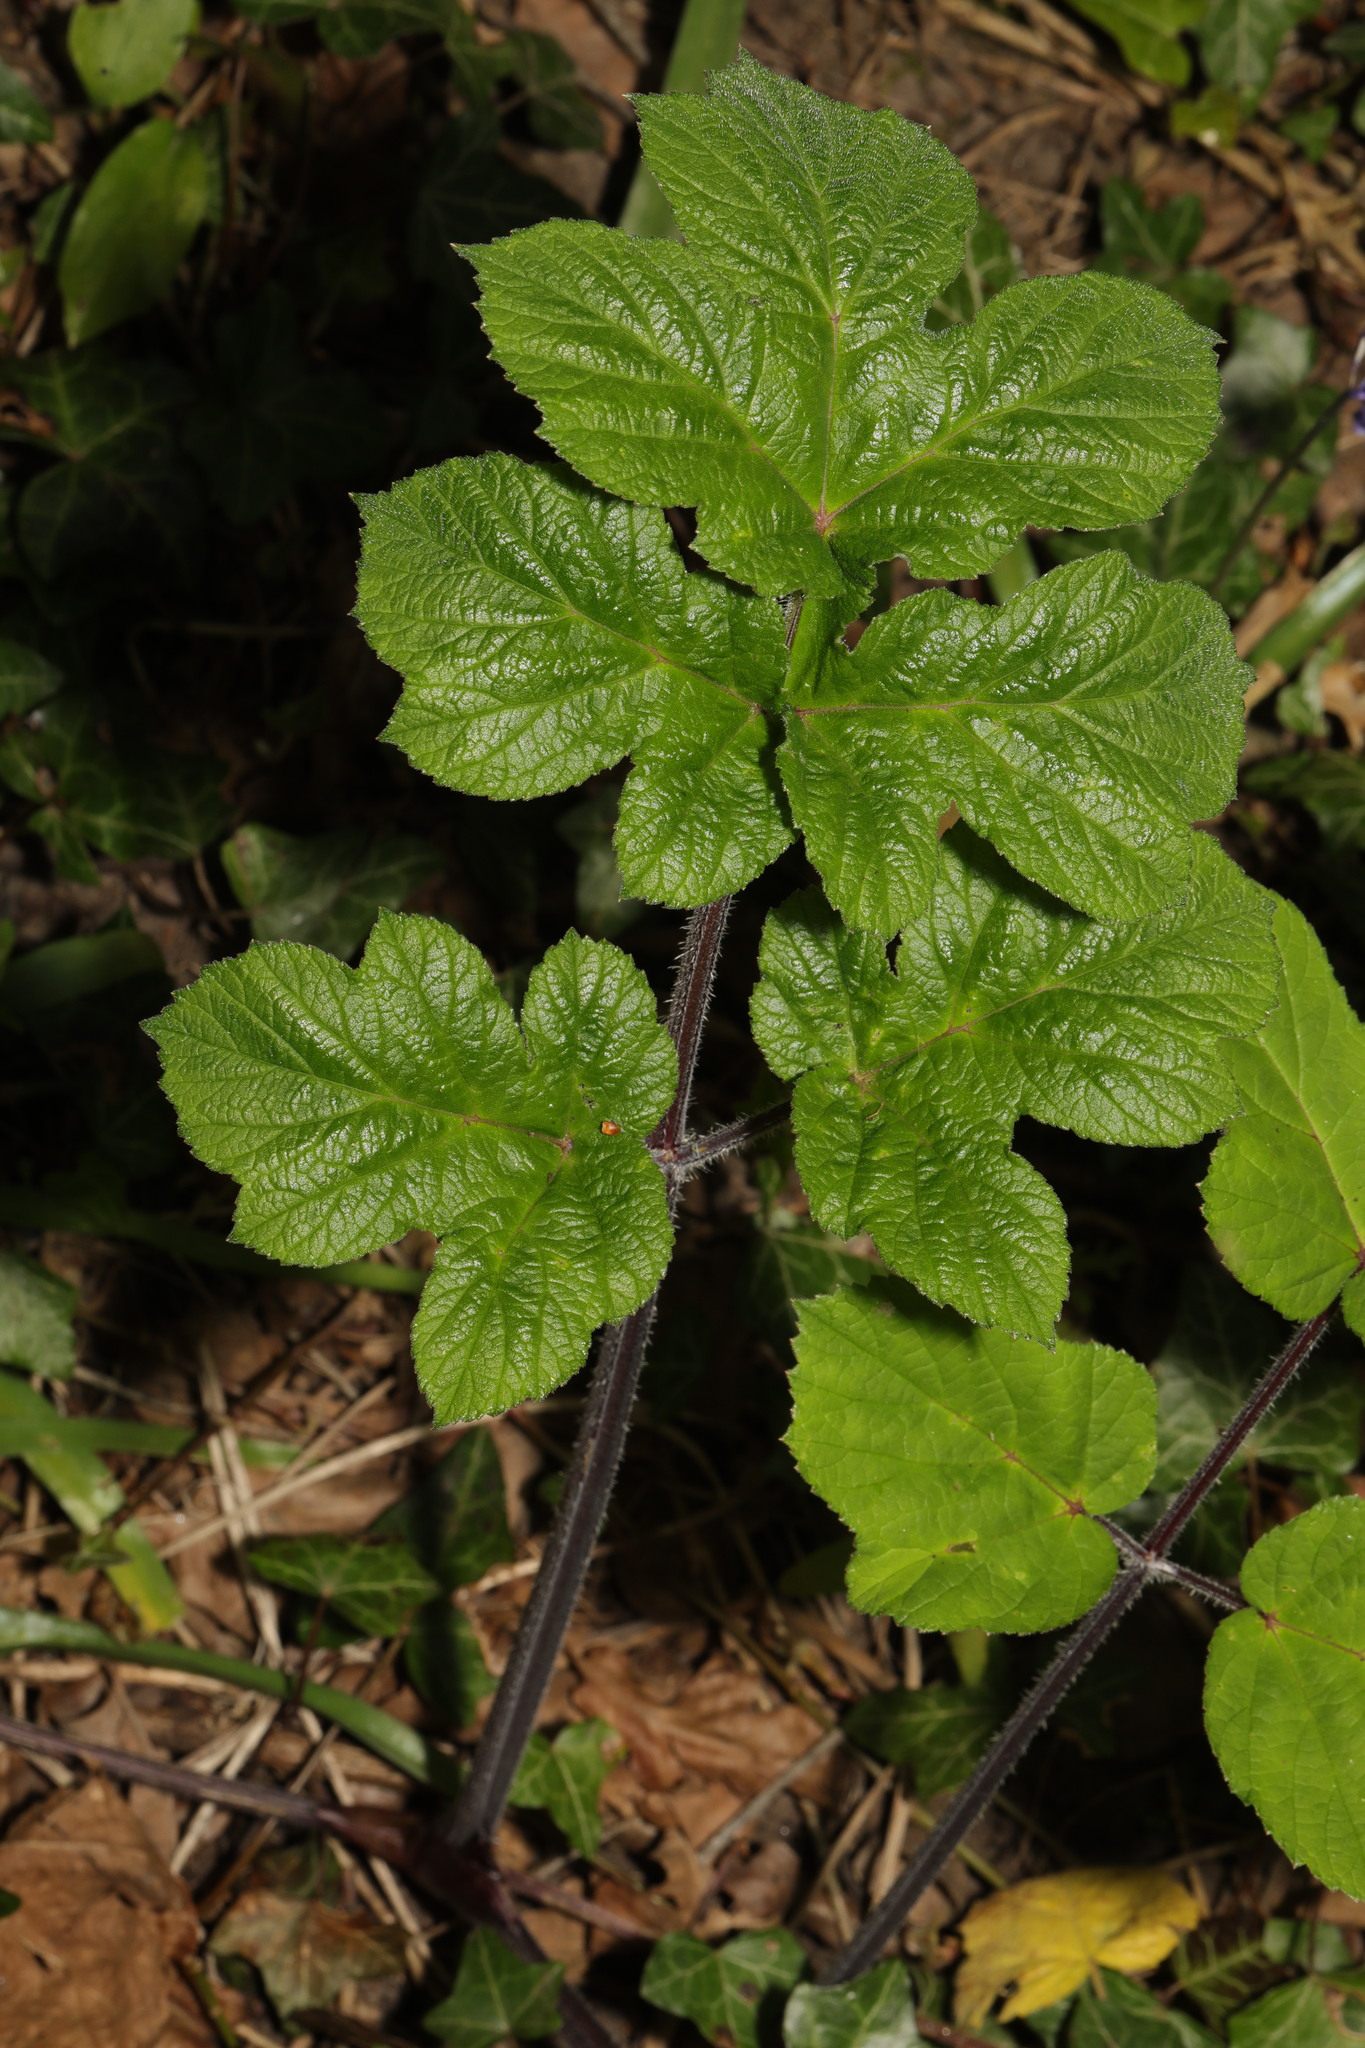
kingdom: Plantae
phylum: Tracheophyta
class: Magnoliopsida
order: Apiales
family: Apiaceae
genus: Heracleum
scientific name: Heracleum sphondylium
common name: Hogweed
